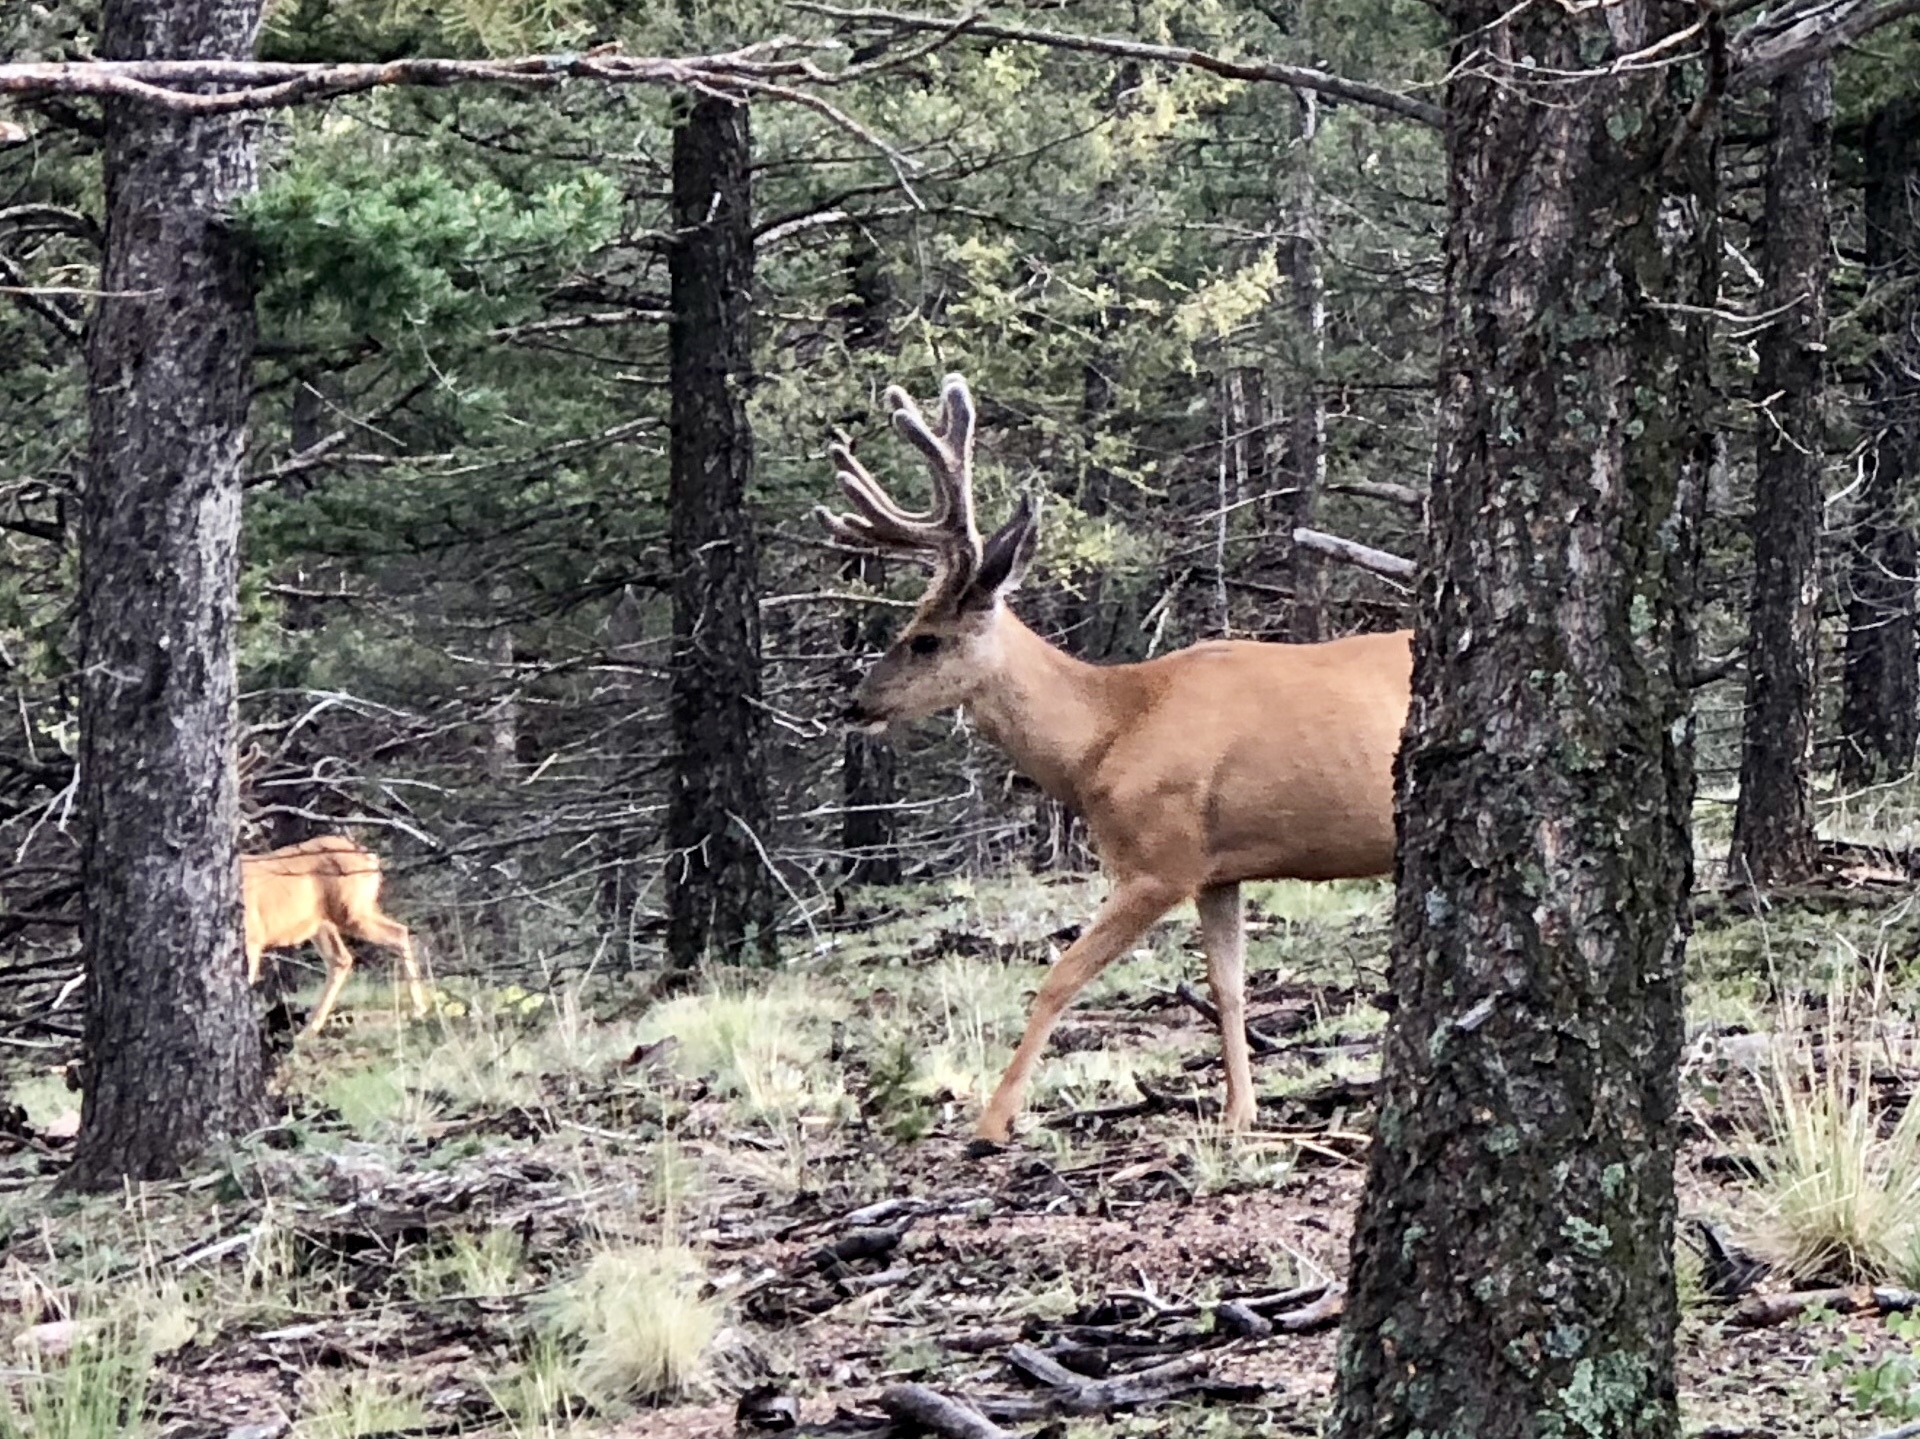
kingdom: Animalia
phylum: Chordata
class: Mammalia
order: Artiodactyla
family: Cervidae
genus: Odocoileus
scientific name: Odocoileus hemionus
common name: Mule deer
